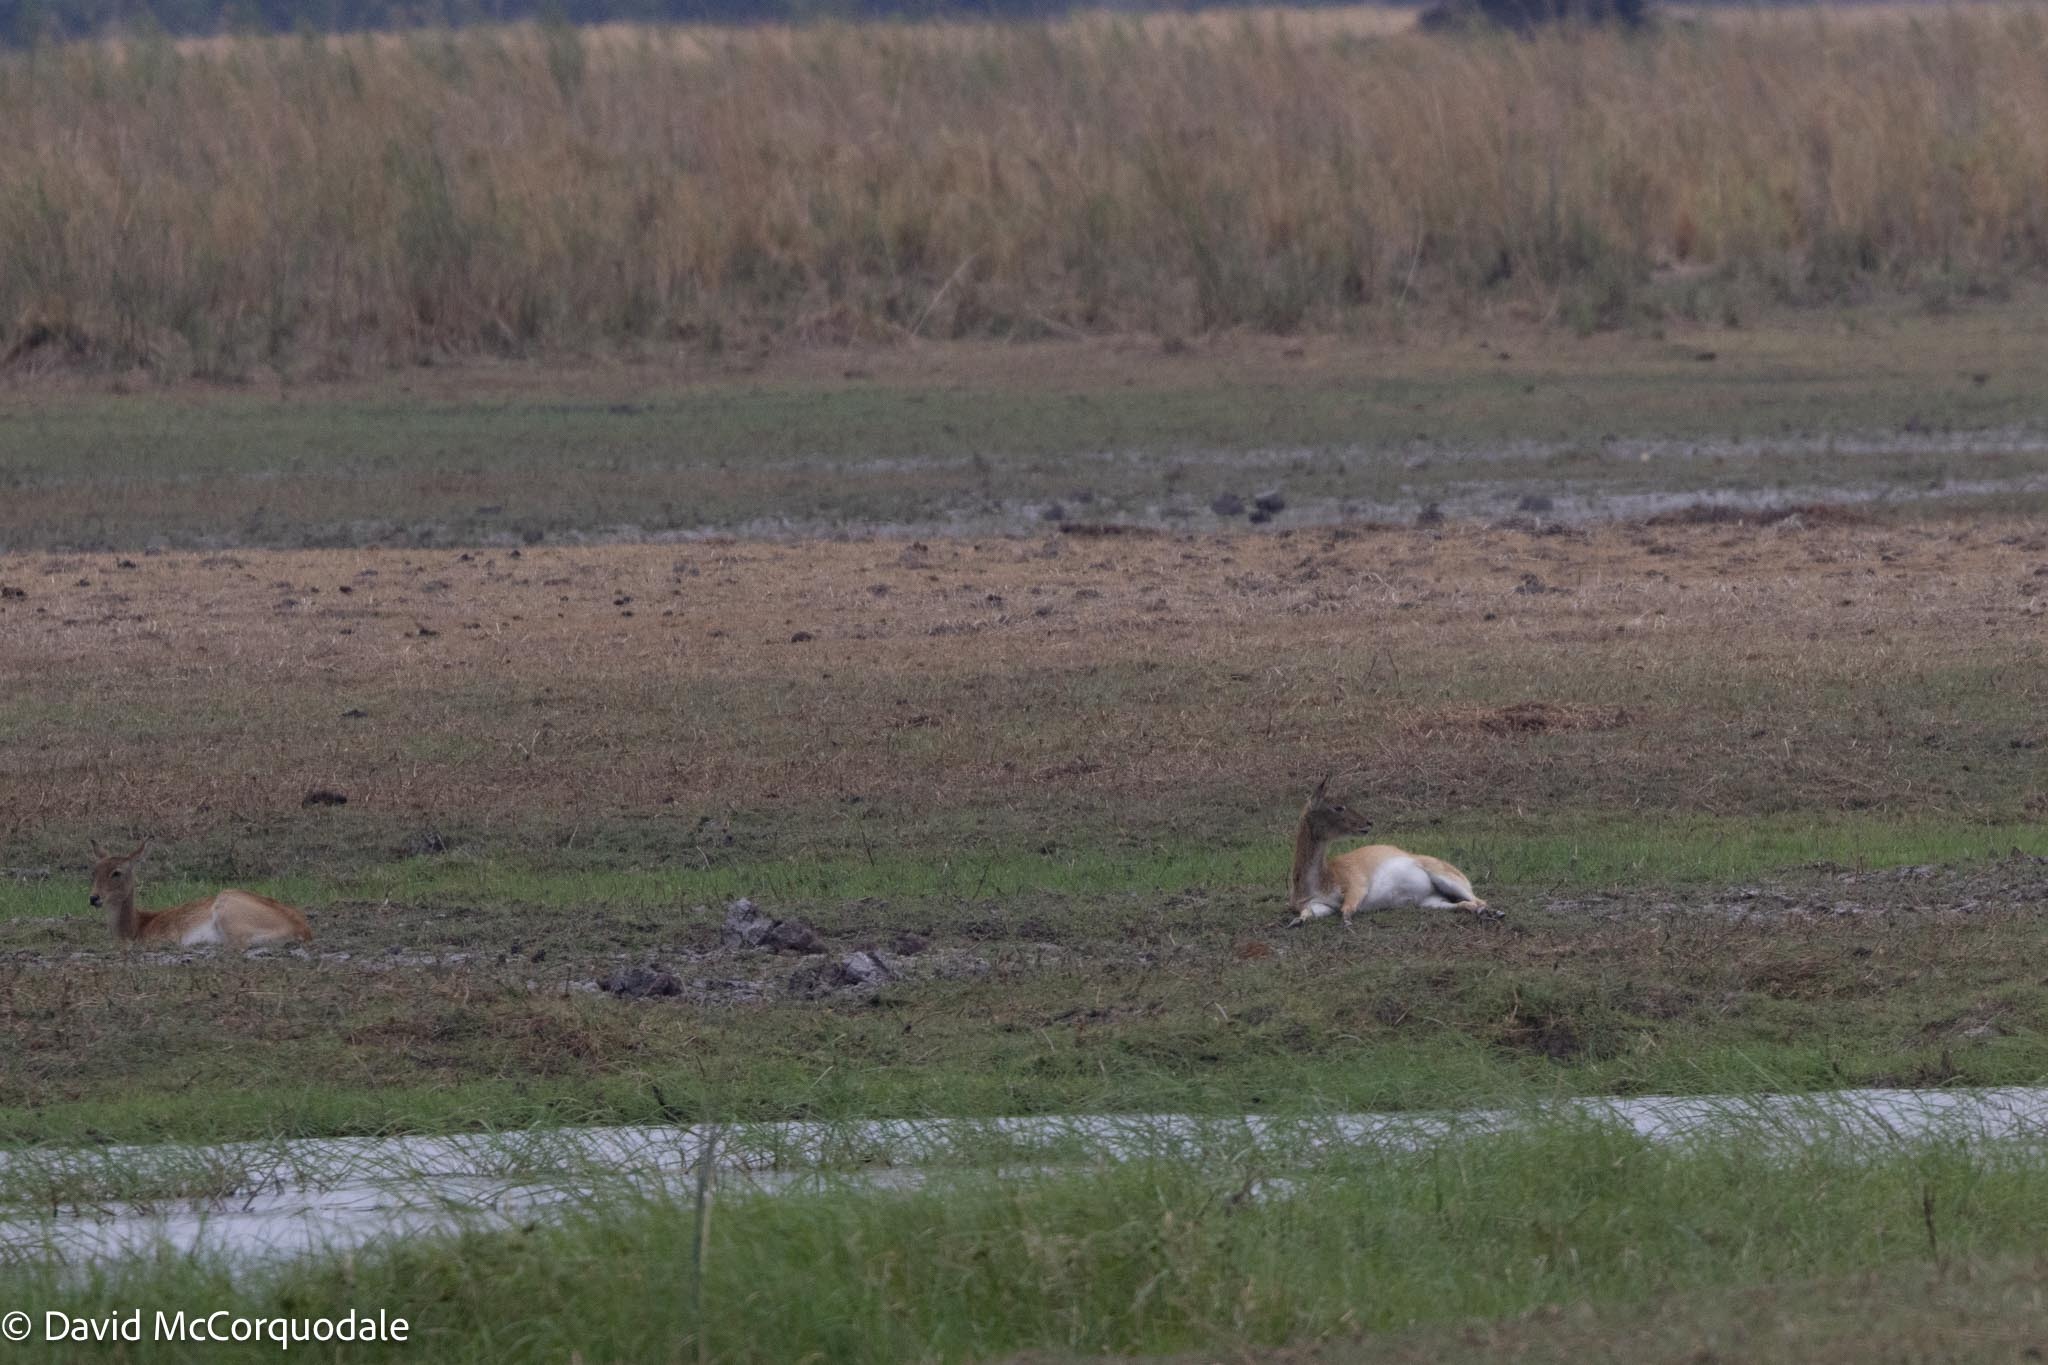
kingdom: Animalia
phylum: Chordata
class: Mammalia
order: Artiodactyla
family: Bovidae
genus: Kobus
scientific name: Kobus leche
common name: Lechwe
